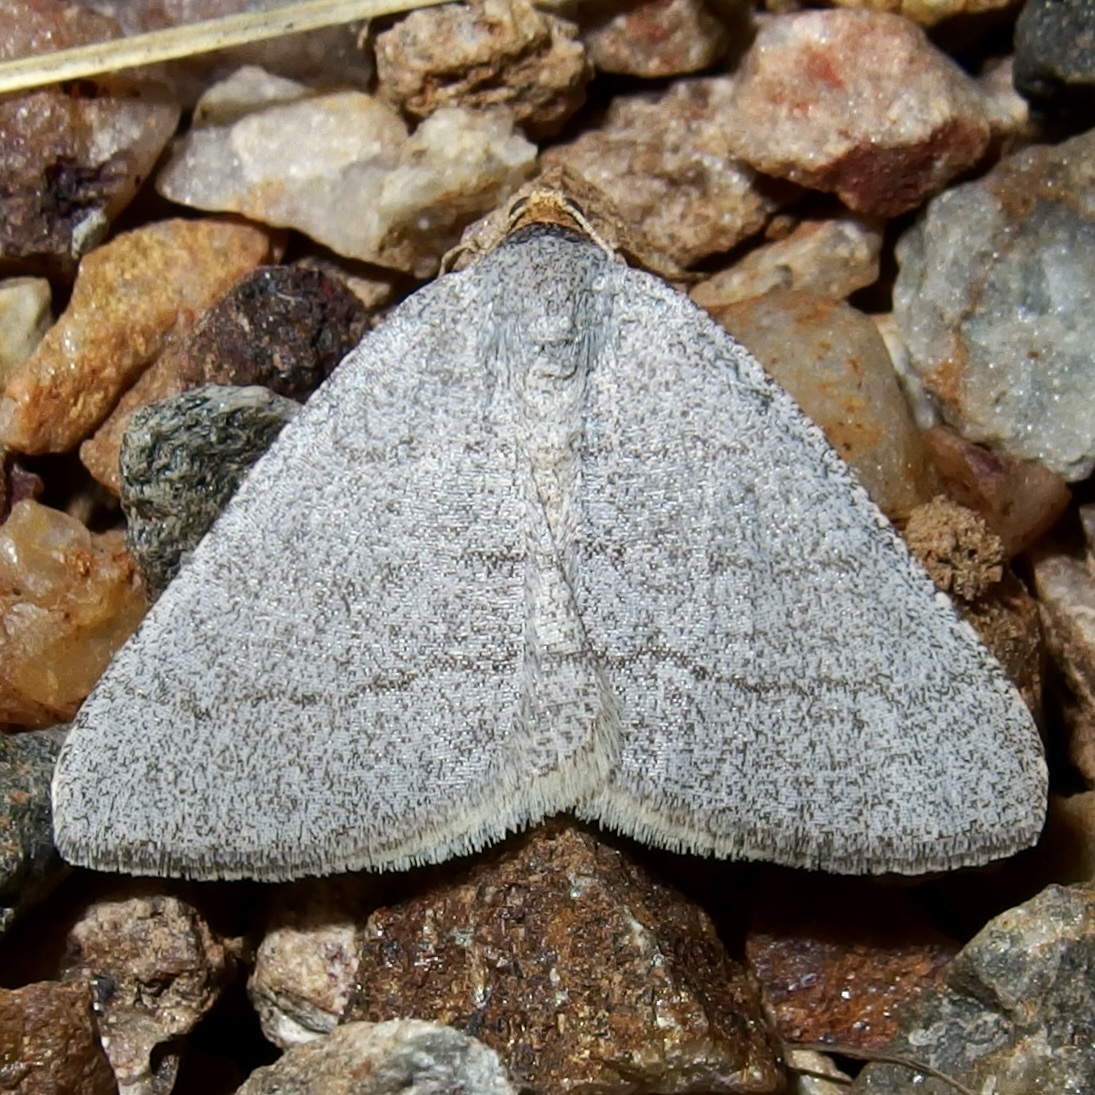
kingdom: Animalia
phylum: Arthropoda
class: Insecta
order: Lepidoptera
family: Geometridae
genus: Macaria
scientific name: Macaria tenebrosata
